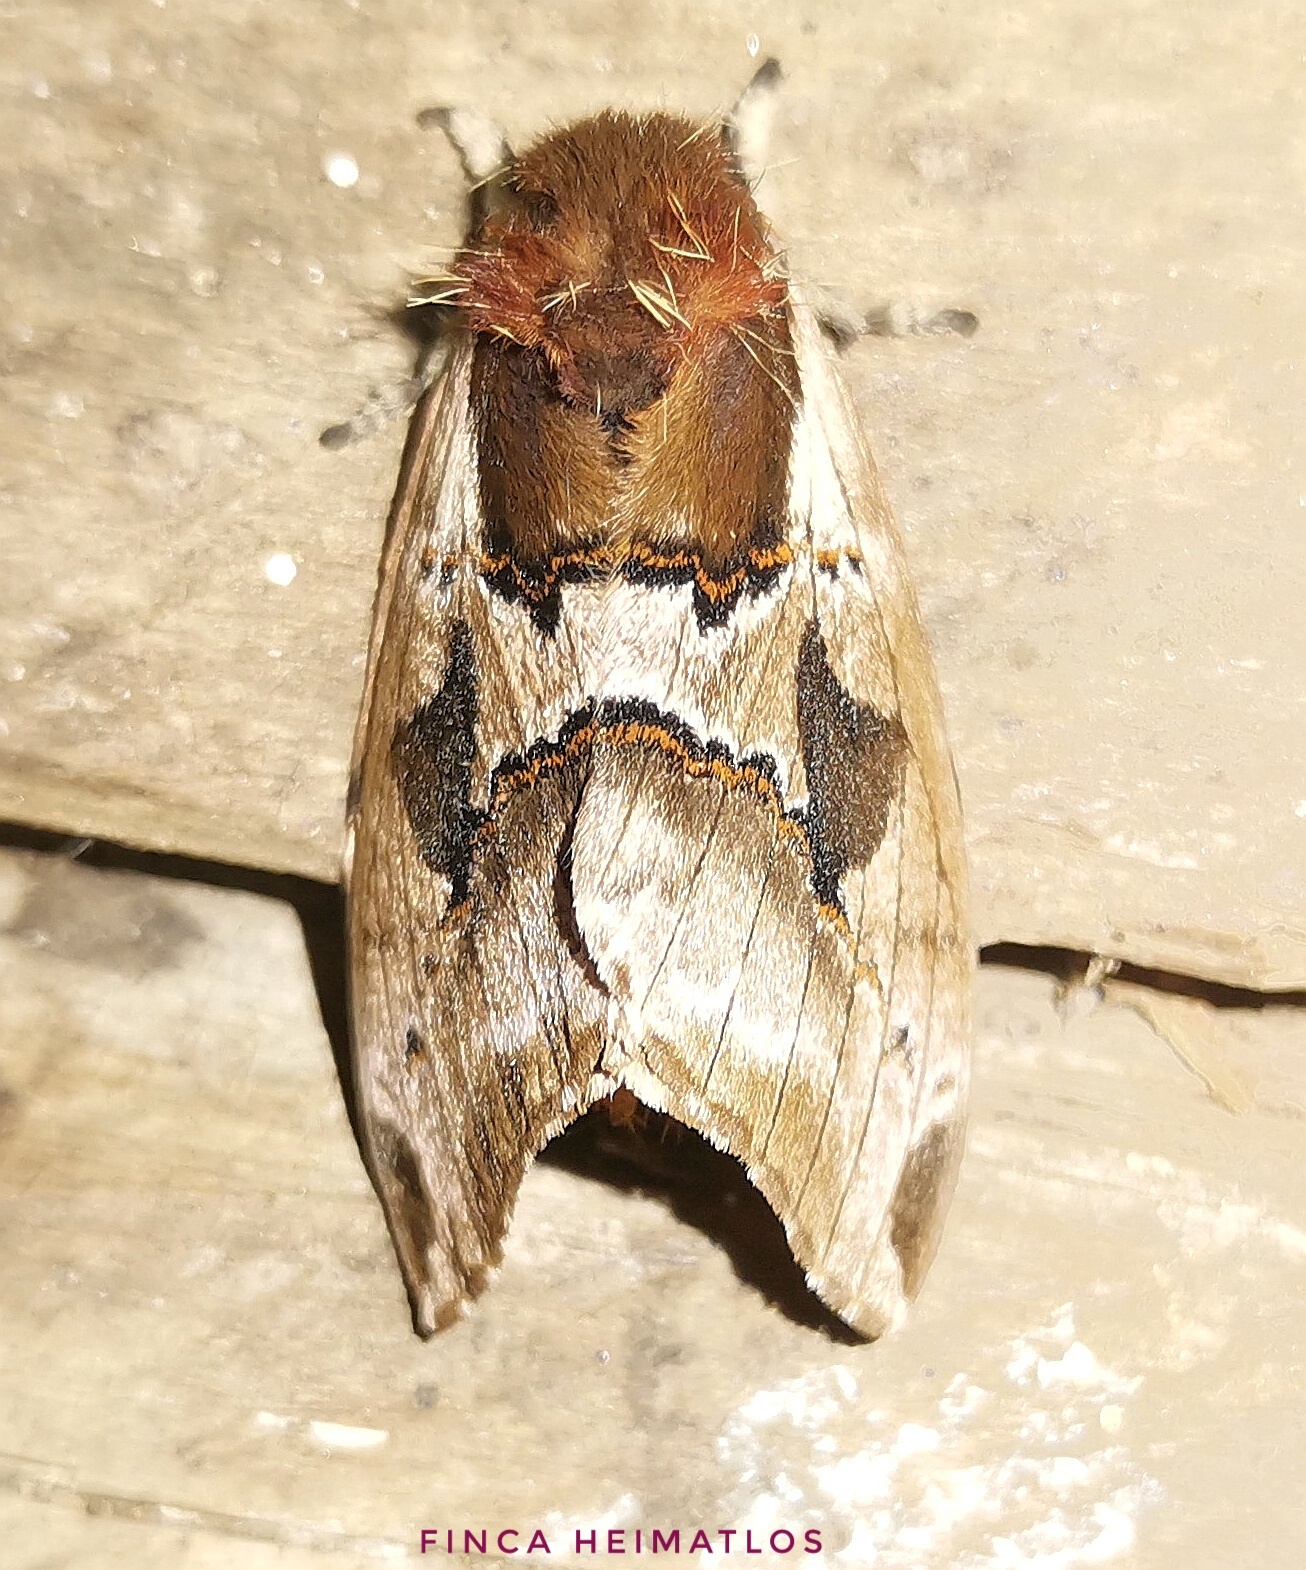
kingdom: Animalia
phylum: Arthropoda
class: Insecta
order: Lepidoptera
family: Saturniidae
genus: Molippa
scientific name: Molippa latemedia
